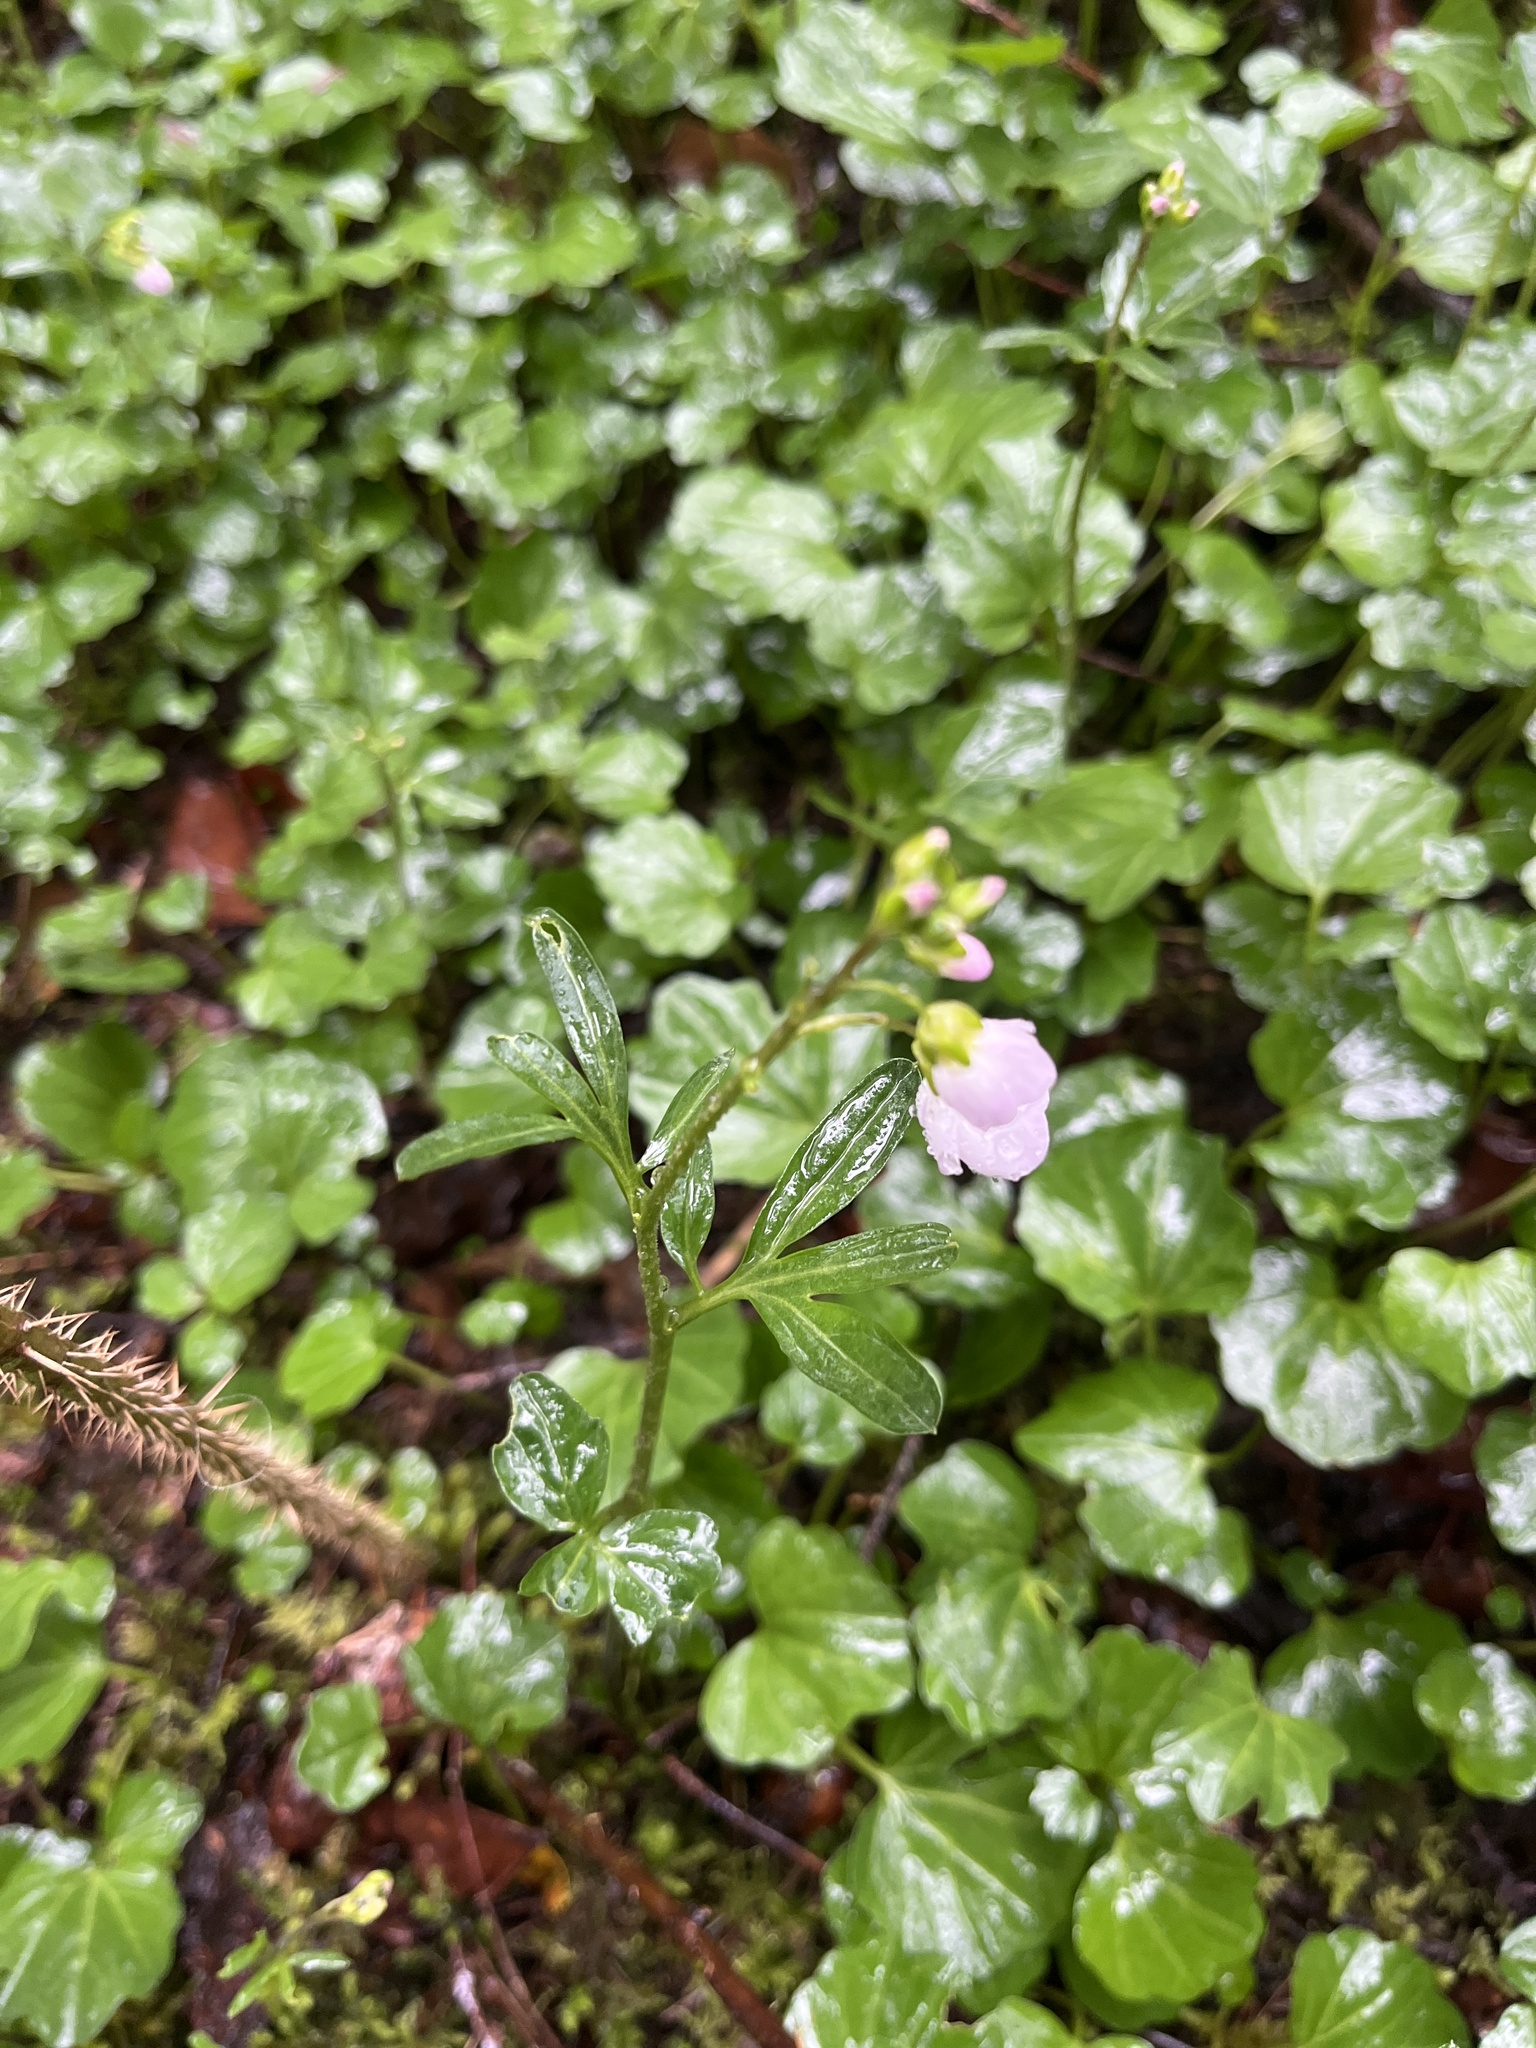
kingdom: Plantae
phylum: Tracheophyta
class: Magnoliopsida
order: Brassicales
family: Brassicaceae
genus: Cardamine
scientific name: Cardamine nuttallii
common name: Nuttall's toothwort
